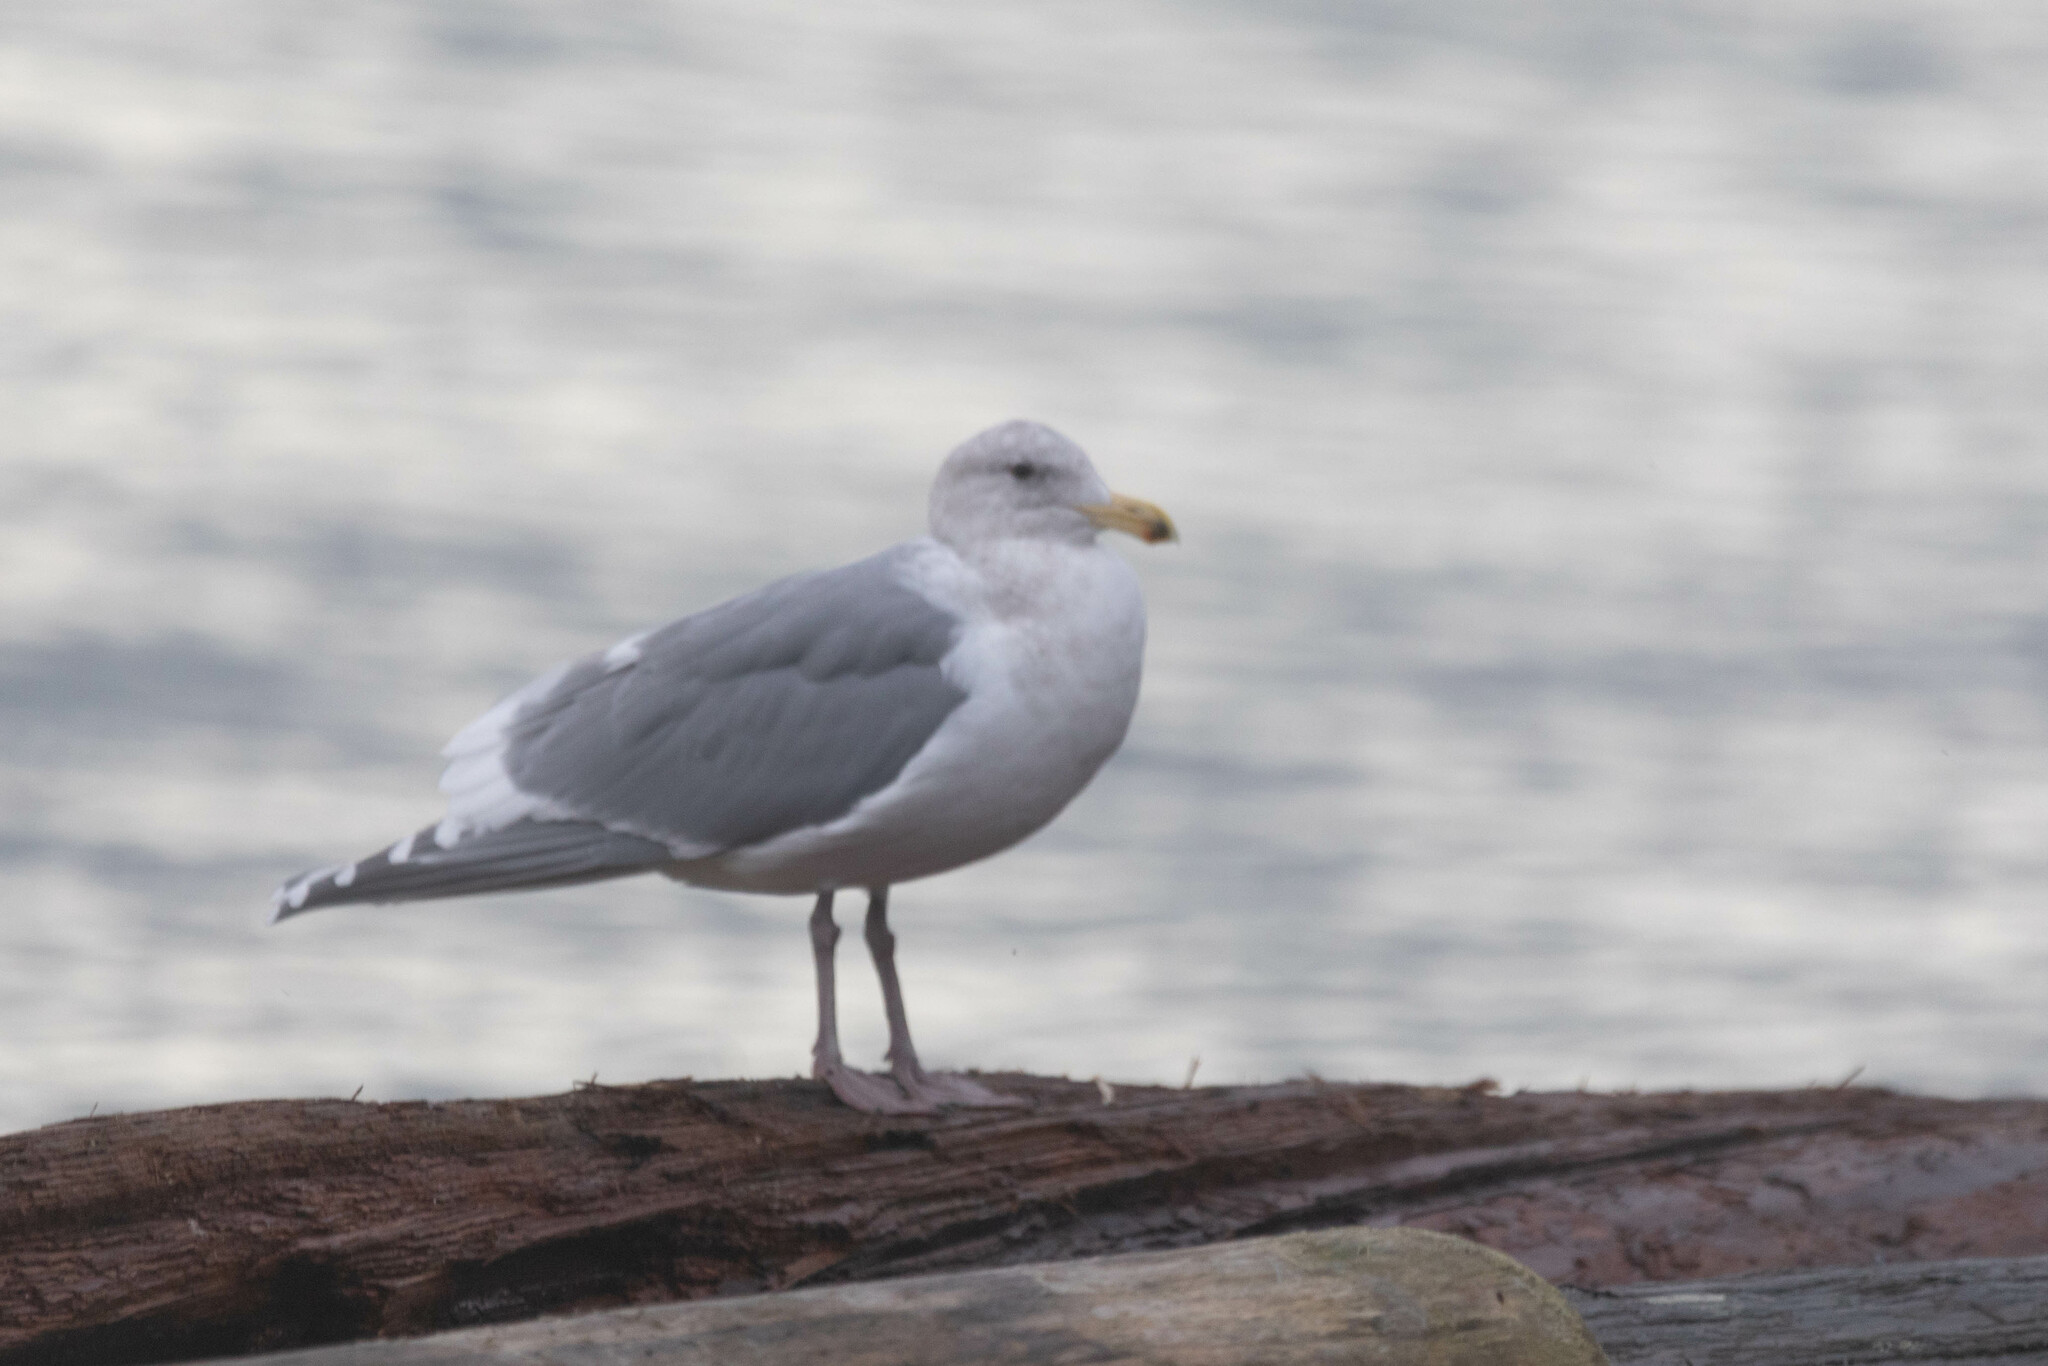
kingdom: Animalia
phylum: Chordata
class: Aves
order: Charadriiformes
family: Laridae
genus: Larus
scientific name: Larus
